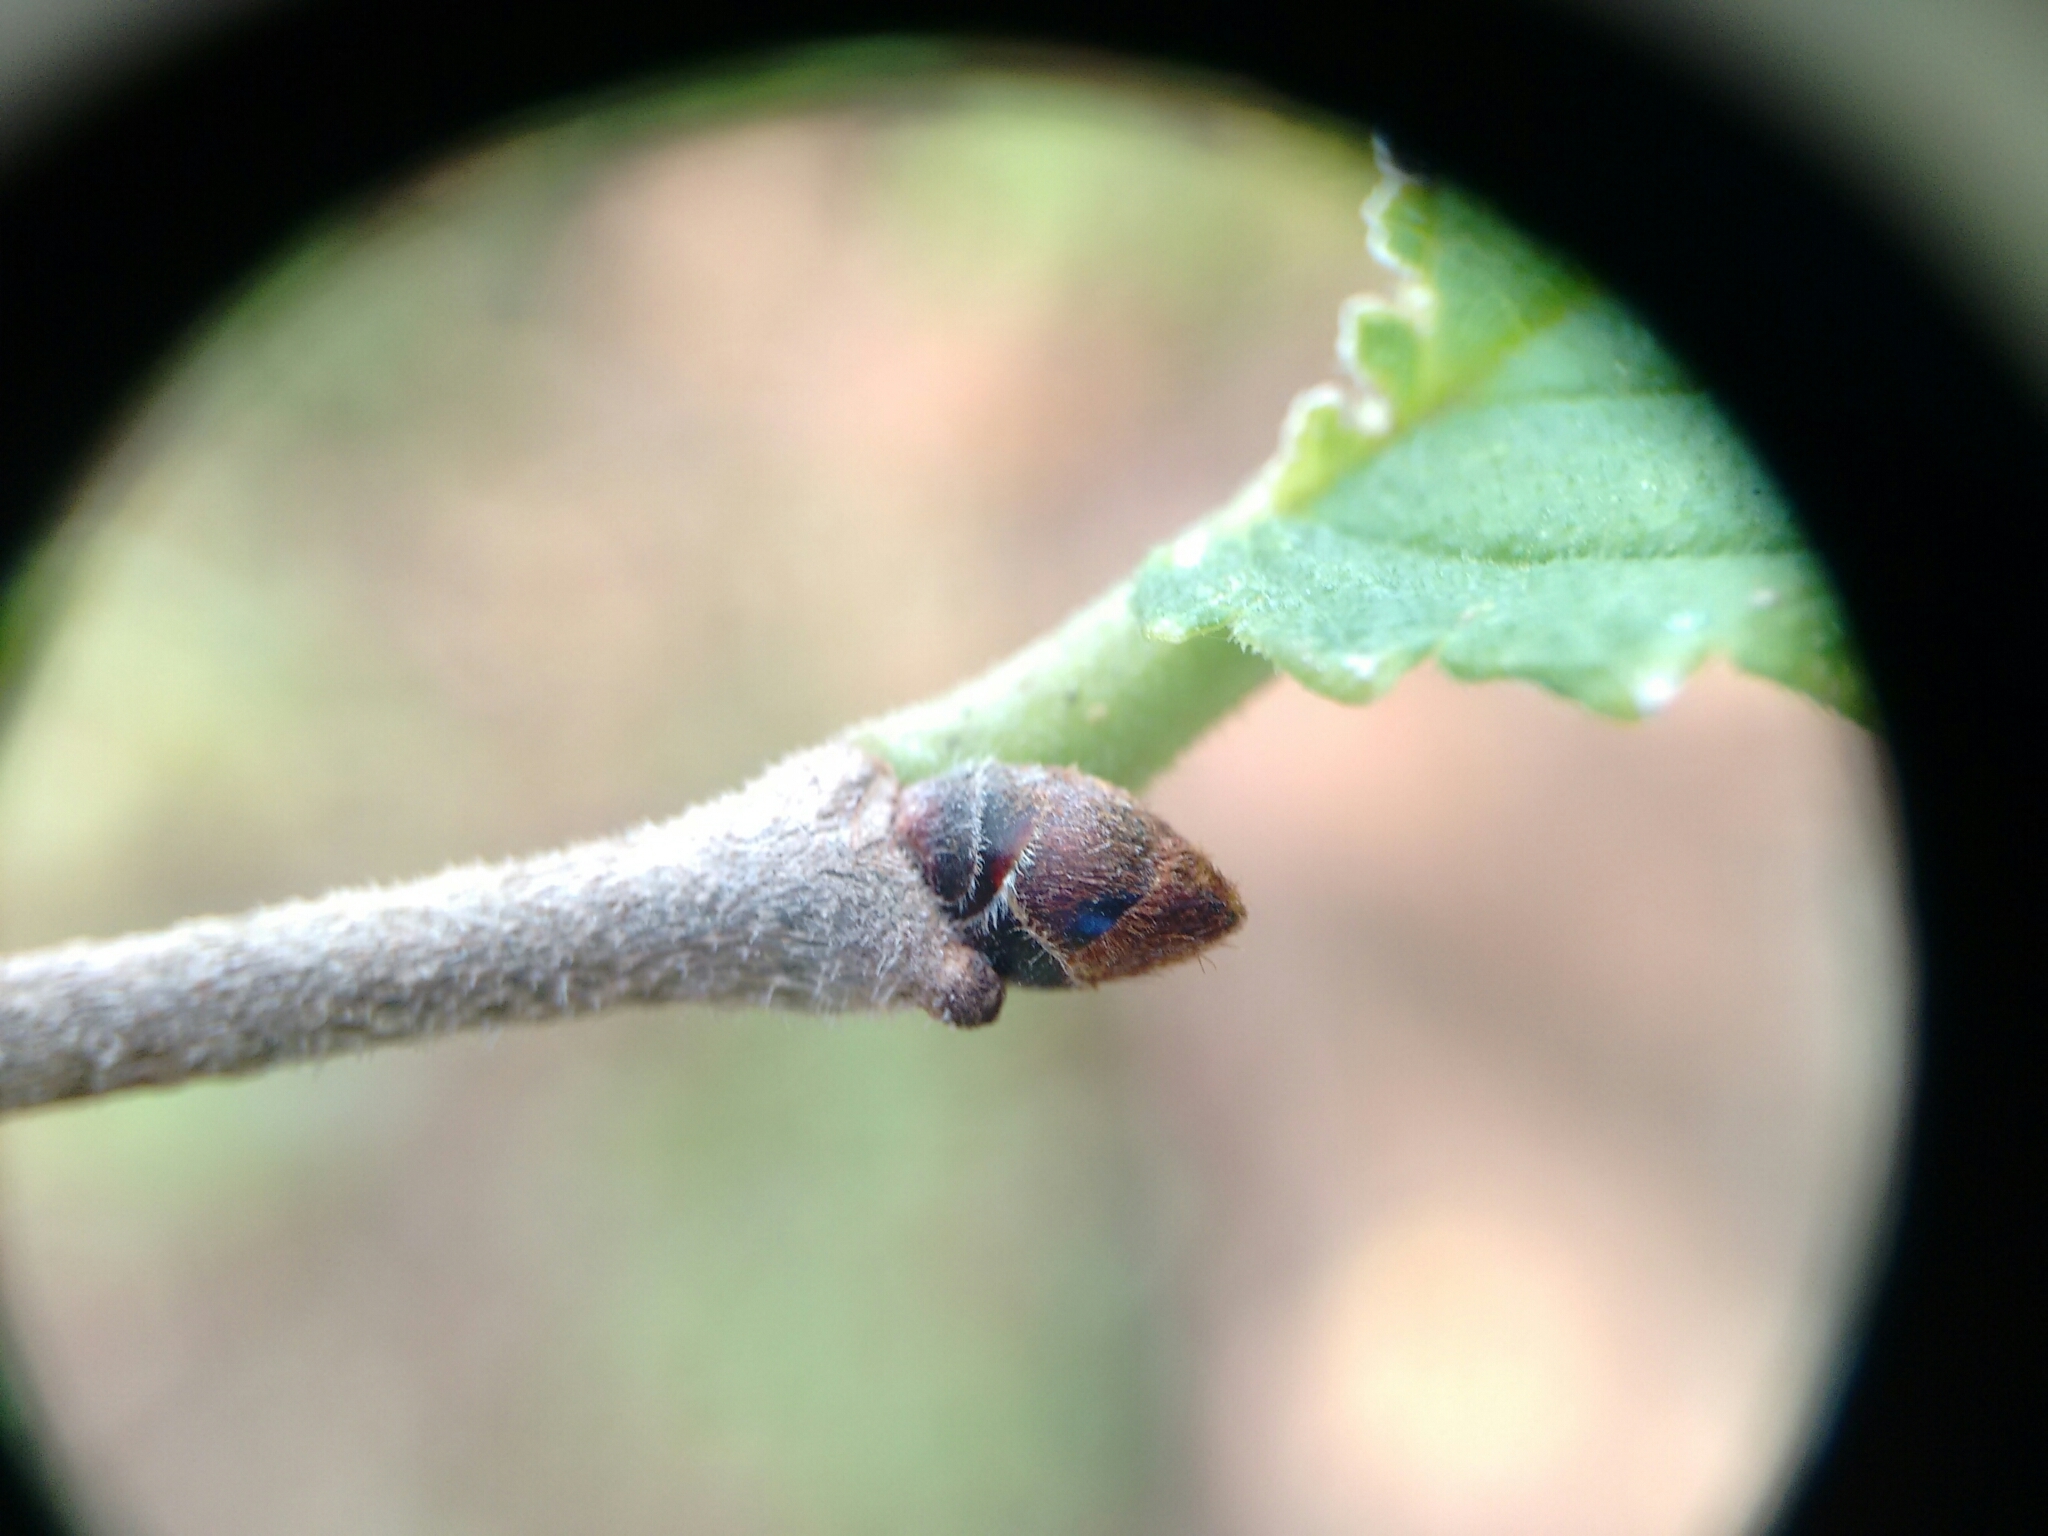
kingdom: Plantae
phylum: Tracheophyta
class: Magnoliopsida
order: Rosales
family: Ulmaceae
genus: Ulmus
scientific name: Ulmus rubra
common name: Slippery elm
